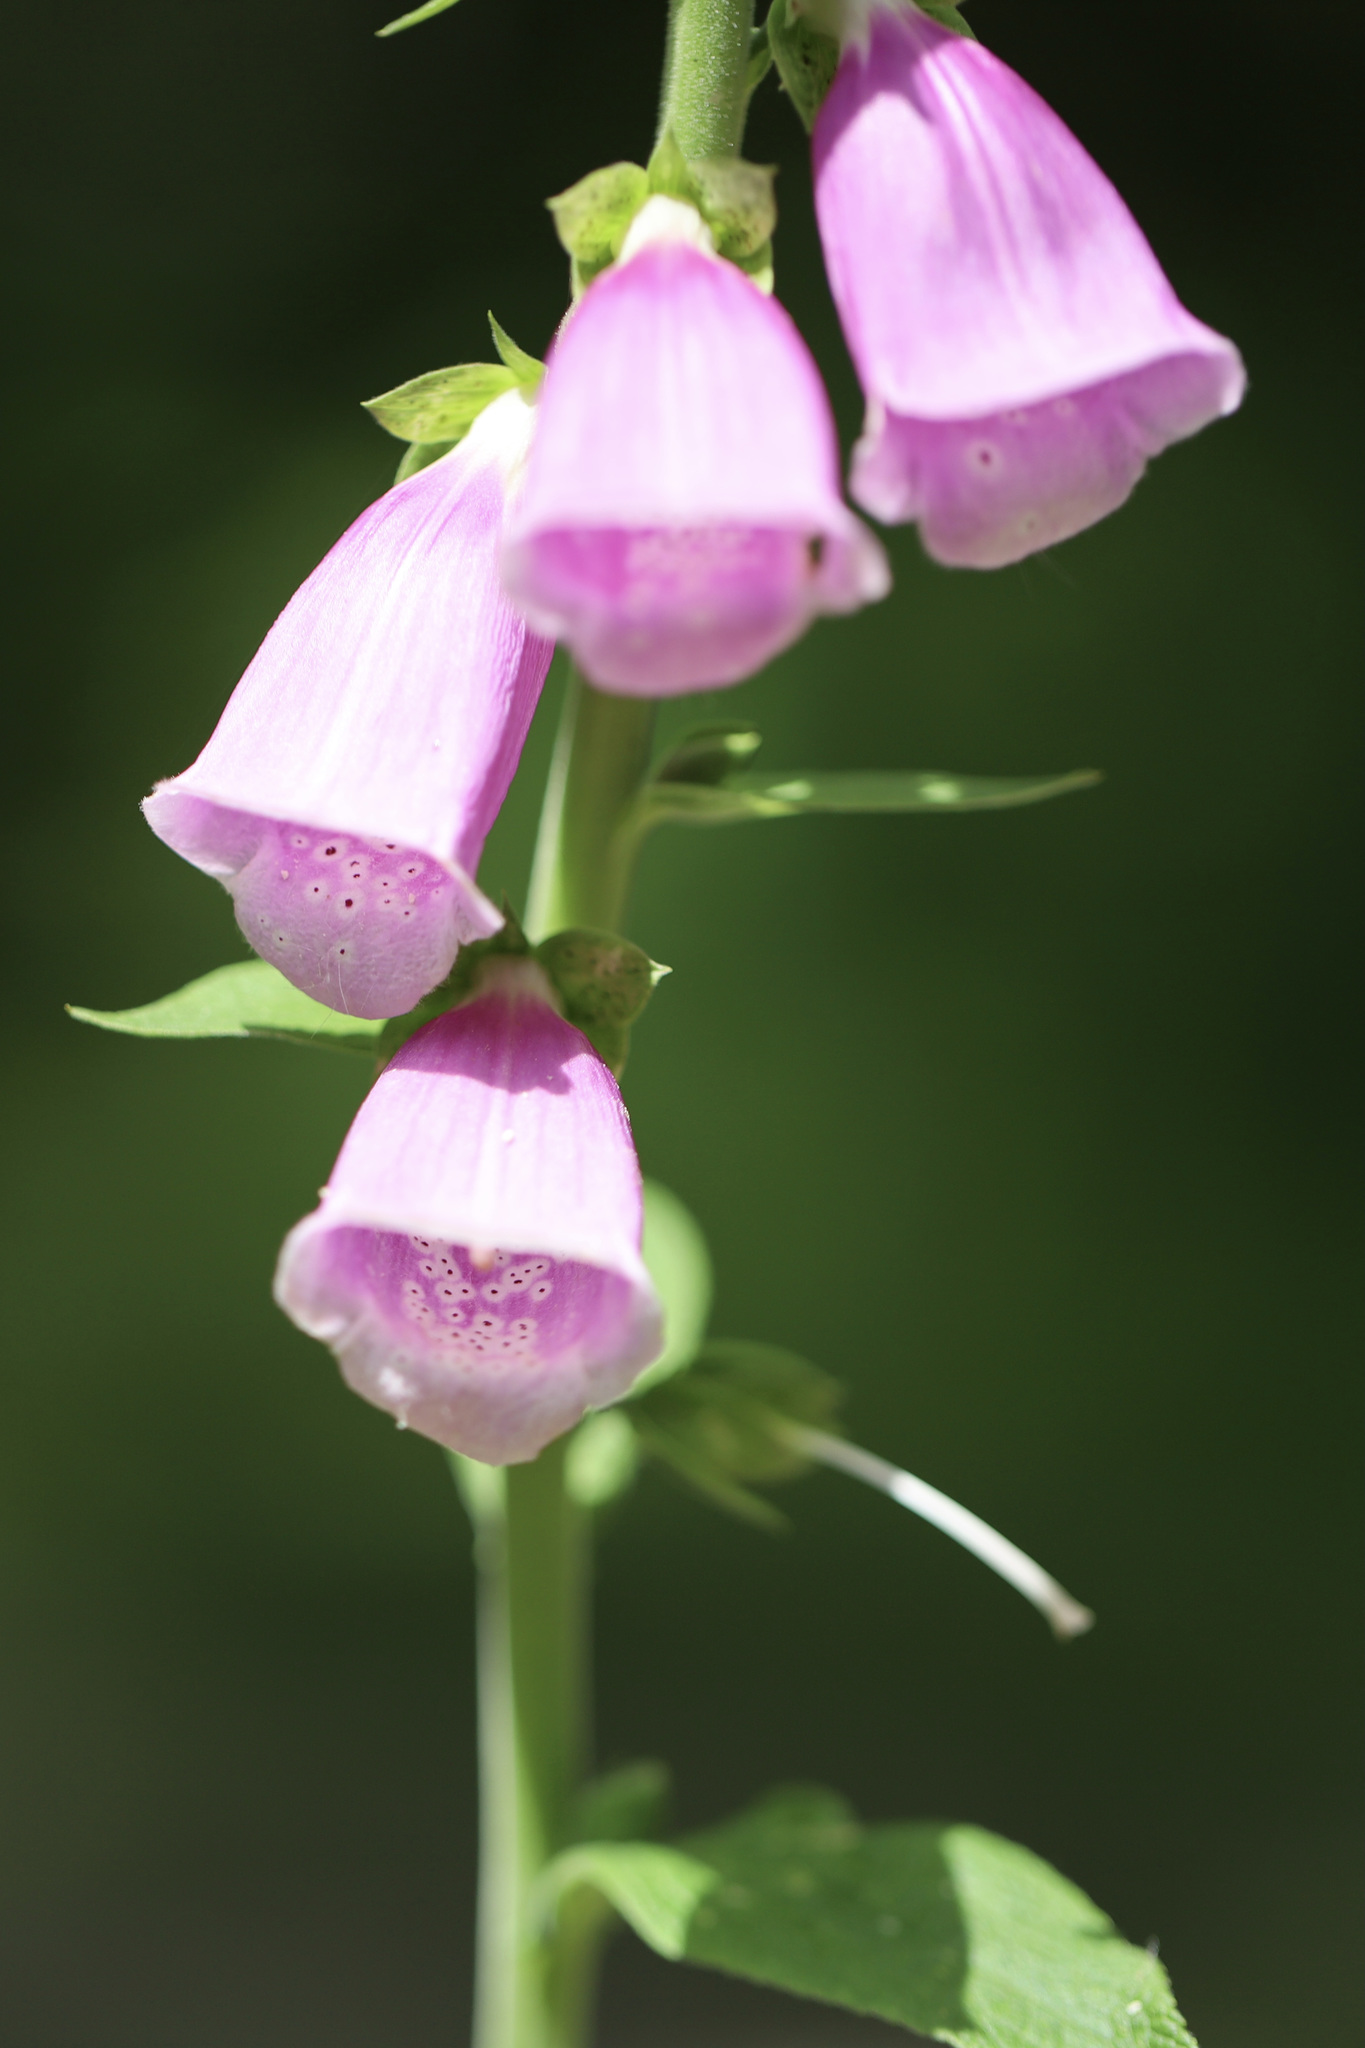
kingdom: Plantae
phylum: Tracheophyta
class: Magnoliopsida
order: Lamiales
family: Plantaginaceae
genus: Digitalis
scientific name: Digitalis purpurea
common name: Foxglove
